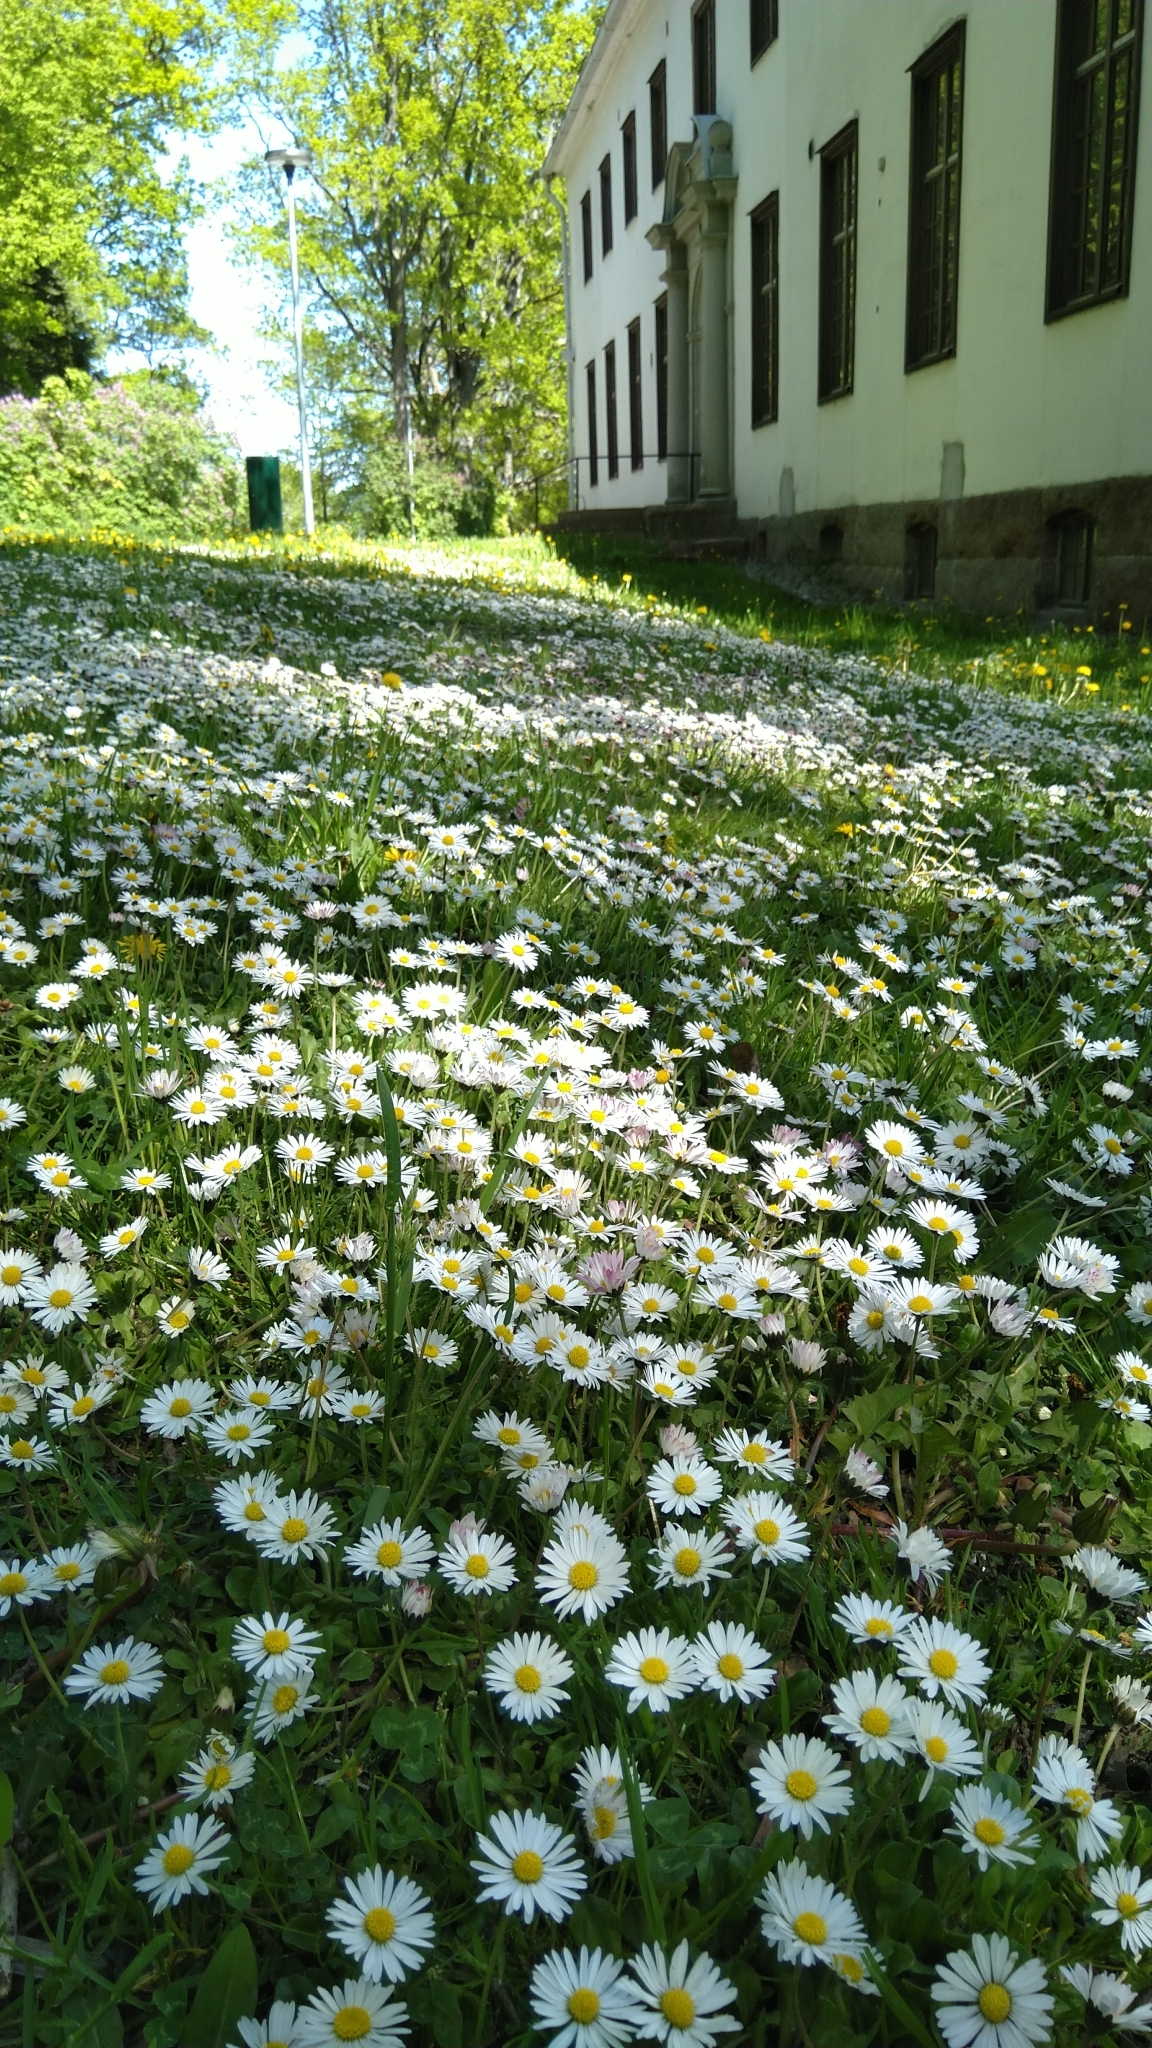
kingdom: Plantae
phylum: Tracheophyta
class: Magnoliopsida
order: Asterales
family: Asteraceae
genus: Bellis
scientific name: Bellis perennis
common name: Lawndaisy
